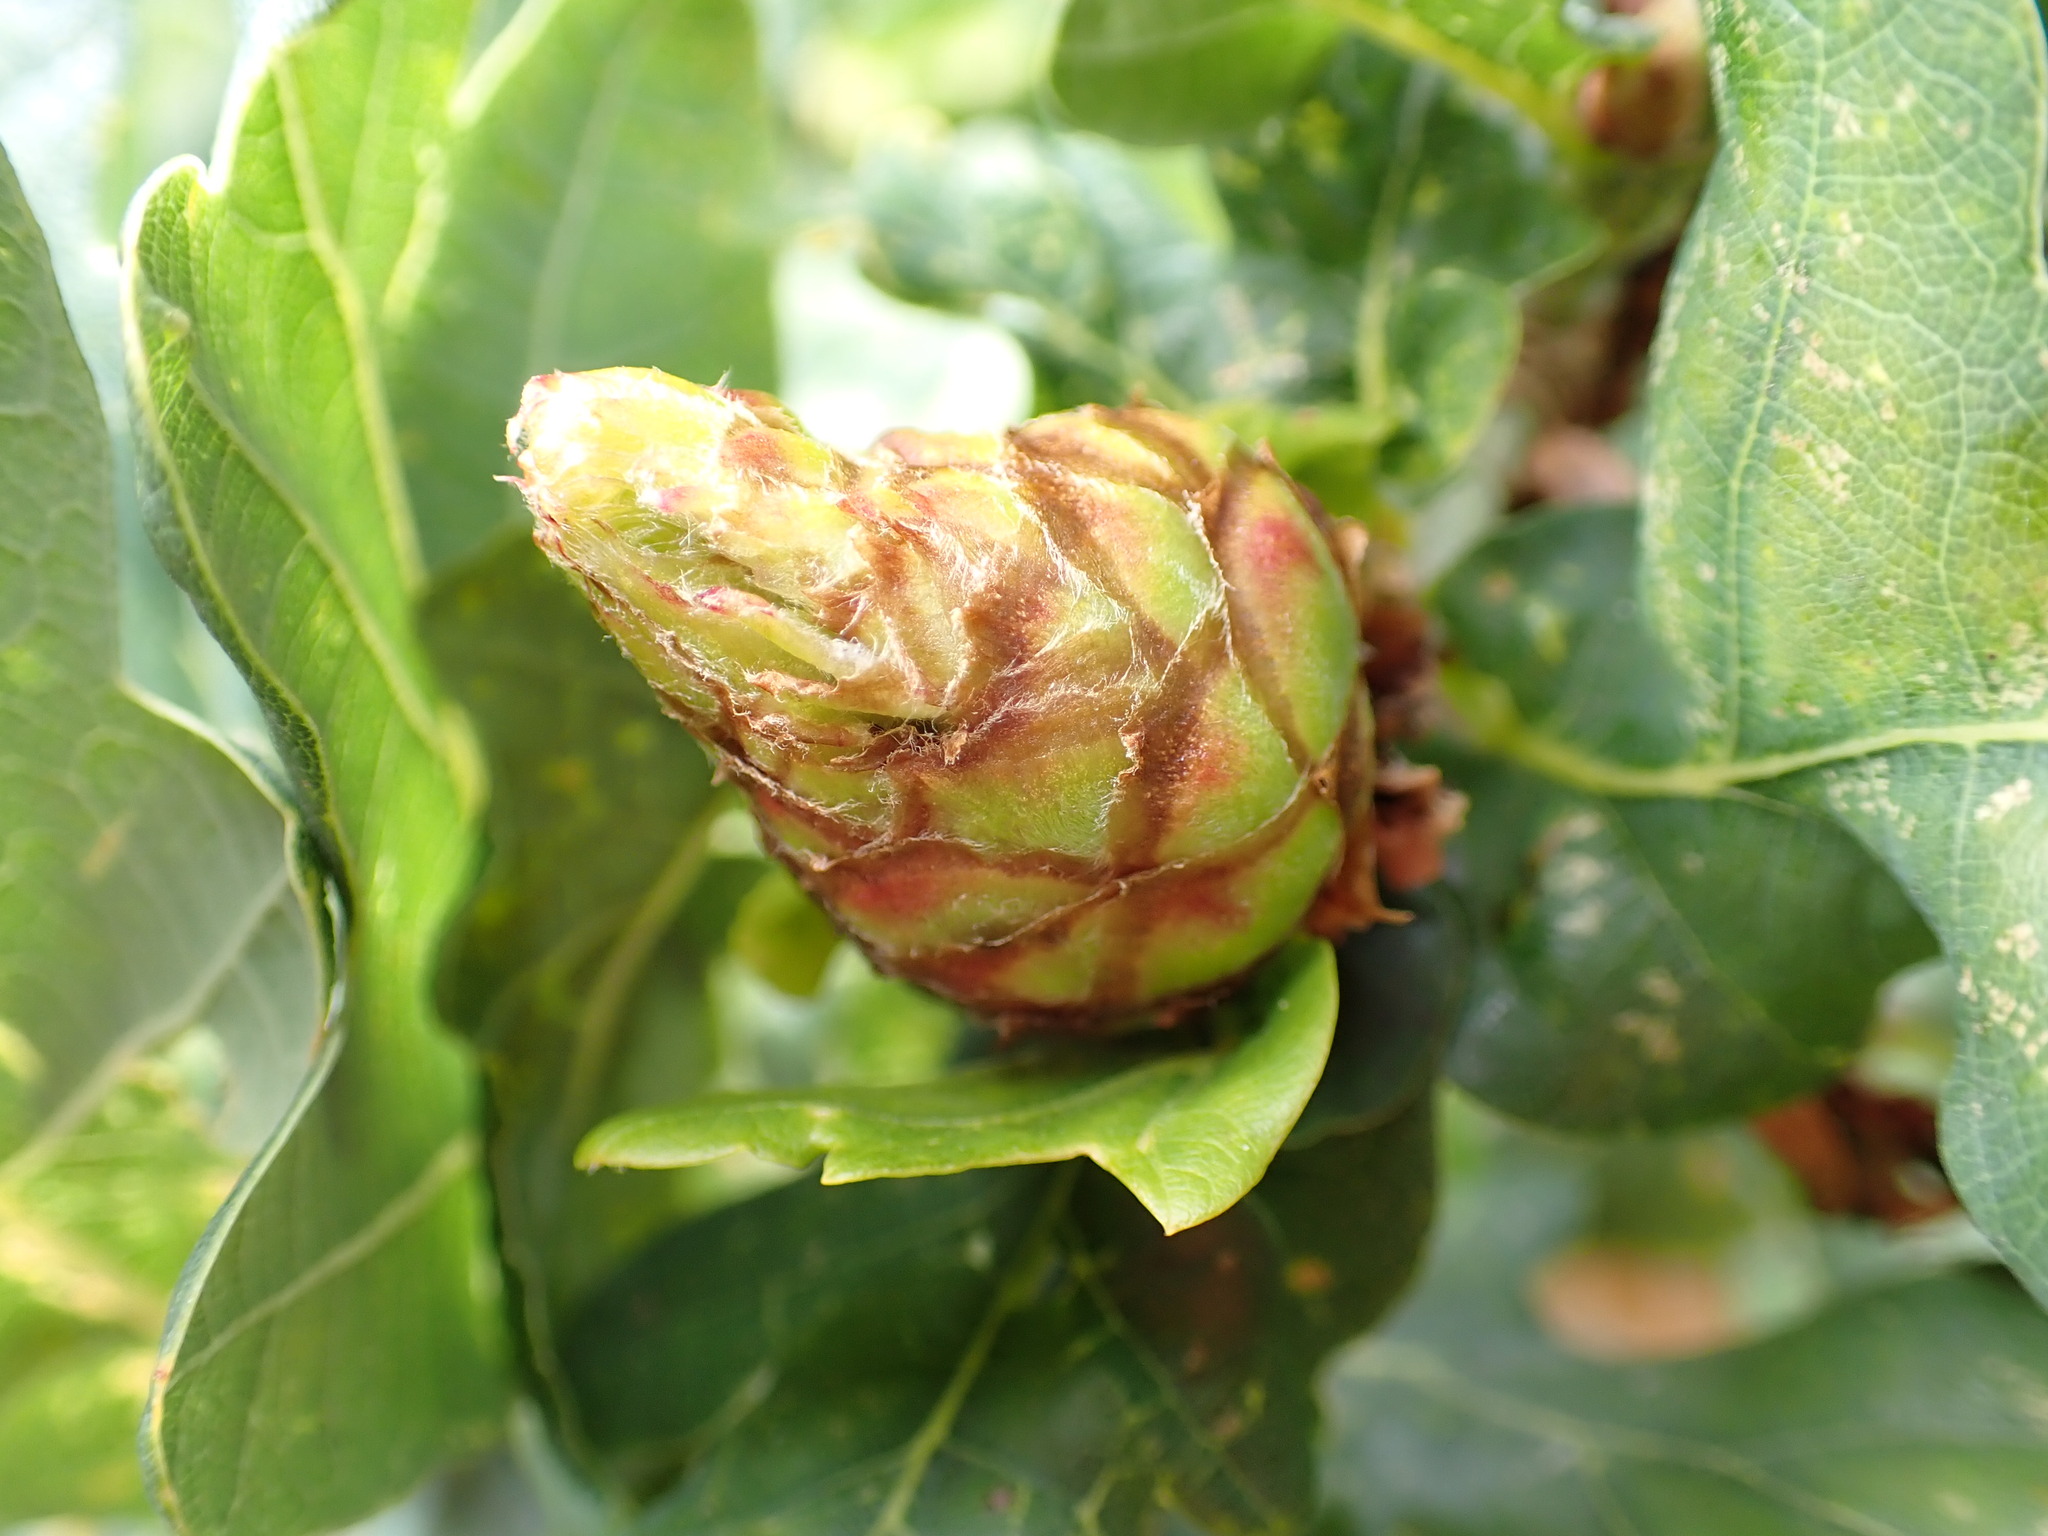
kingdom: Animalia
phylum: Arthropoda
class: Insecta
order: Hymenoptera
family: Cynipidae
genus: Andricus
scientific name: Andricus foecundatrix
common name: Artichoke gall
